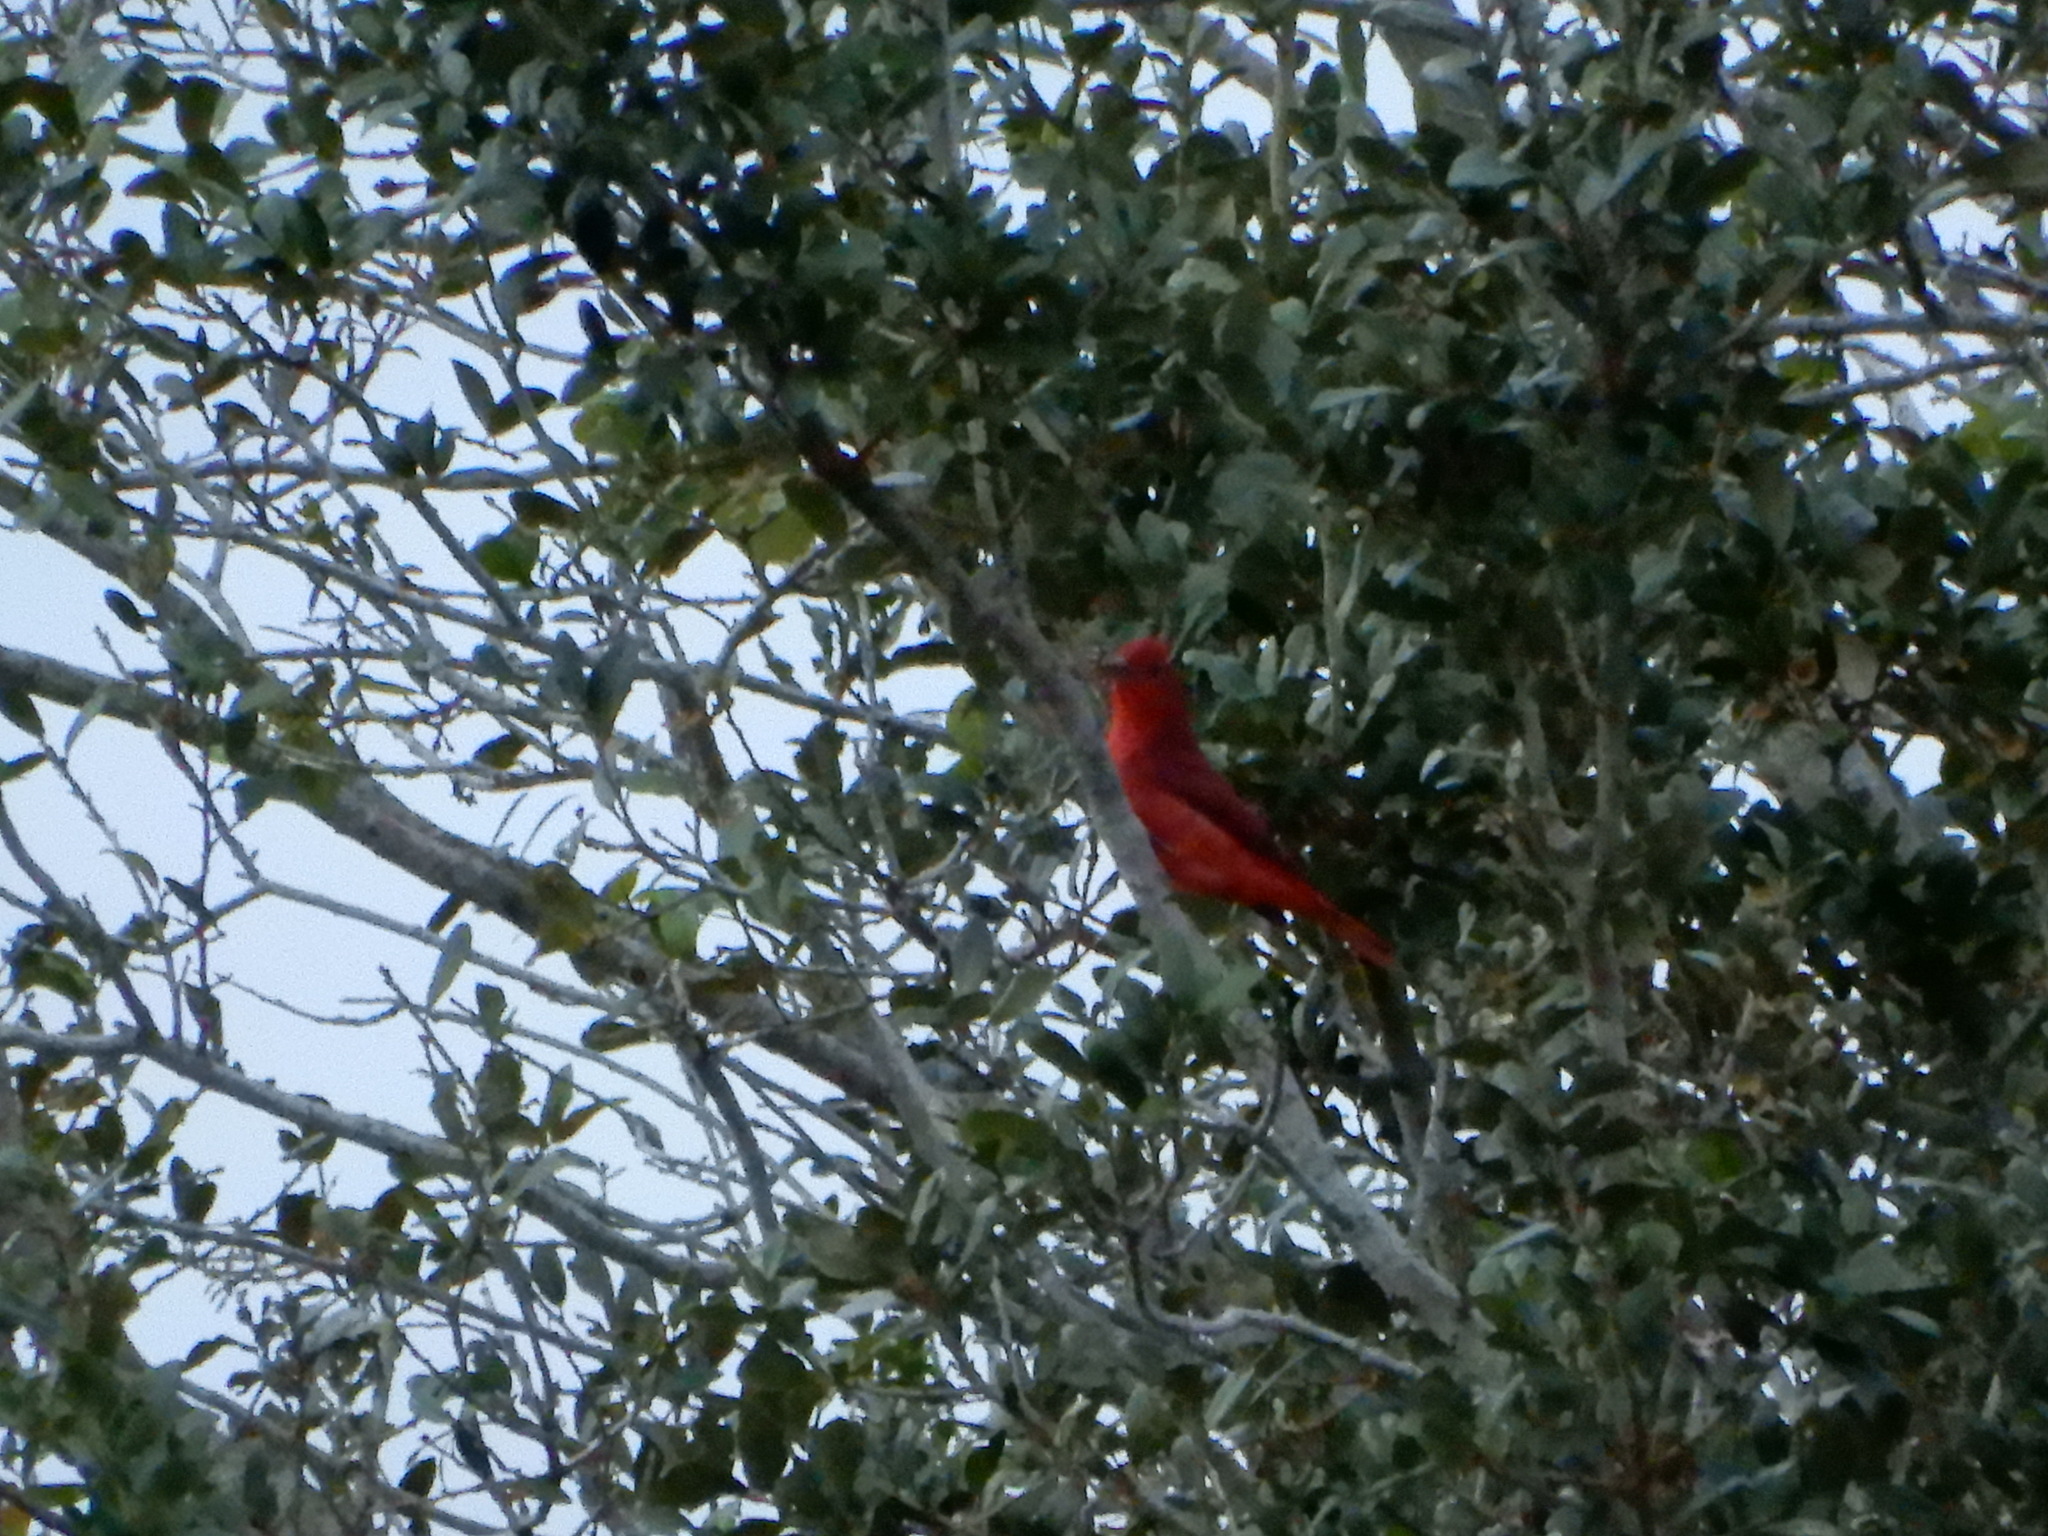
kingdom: Animalia
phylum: Chordata
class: Aves
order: Passeriformes
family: Cardinalidae
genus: Piranga
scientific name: Piranga rubra
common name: Summer tanager
